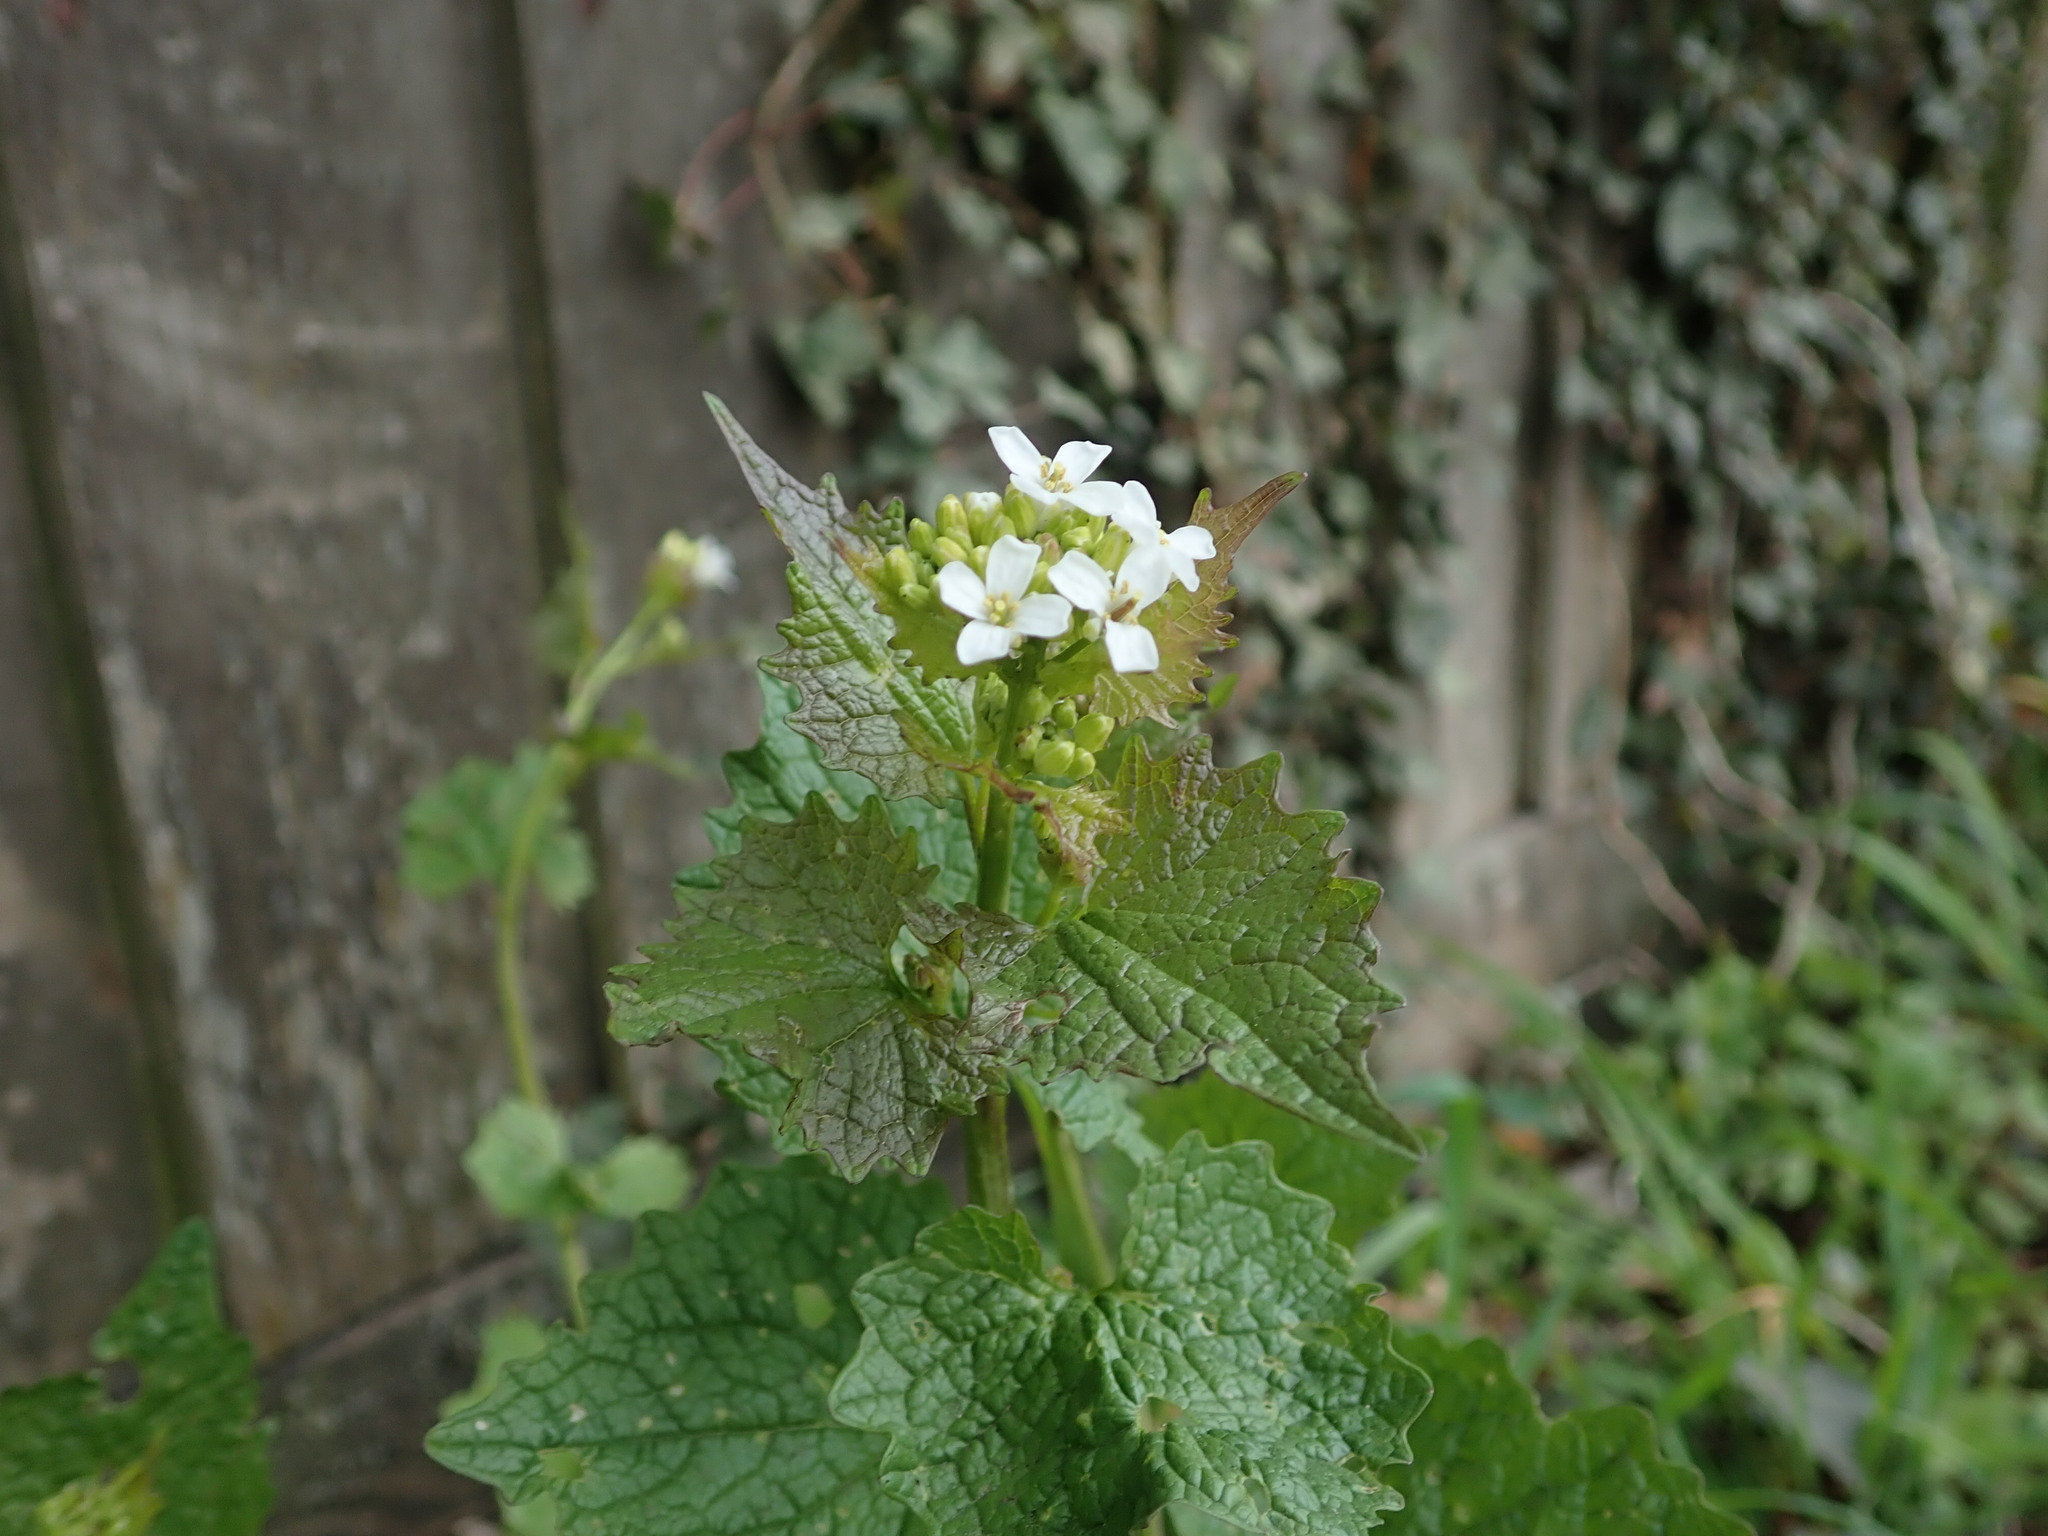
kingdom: Plantae
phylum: Tracheophyta
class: Magnoliopsida
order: Brassicales
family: Brassicaceae
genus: Alliaria
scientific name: Alliaria petiolata
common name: Garlic mustard
